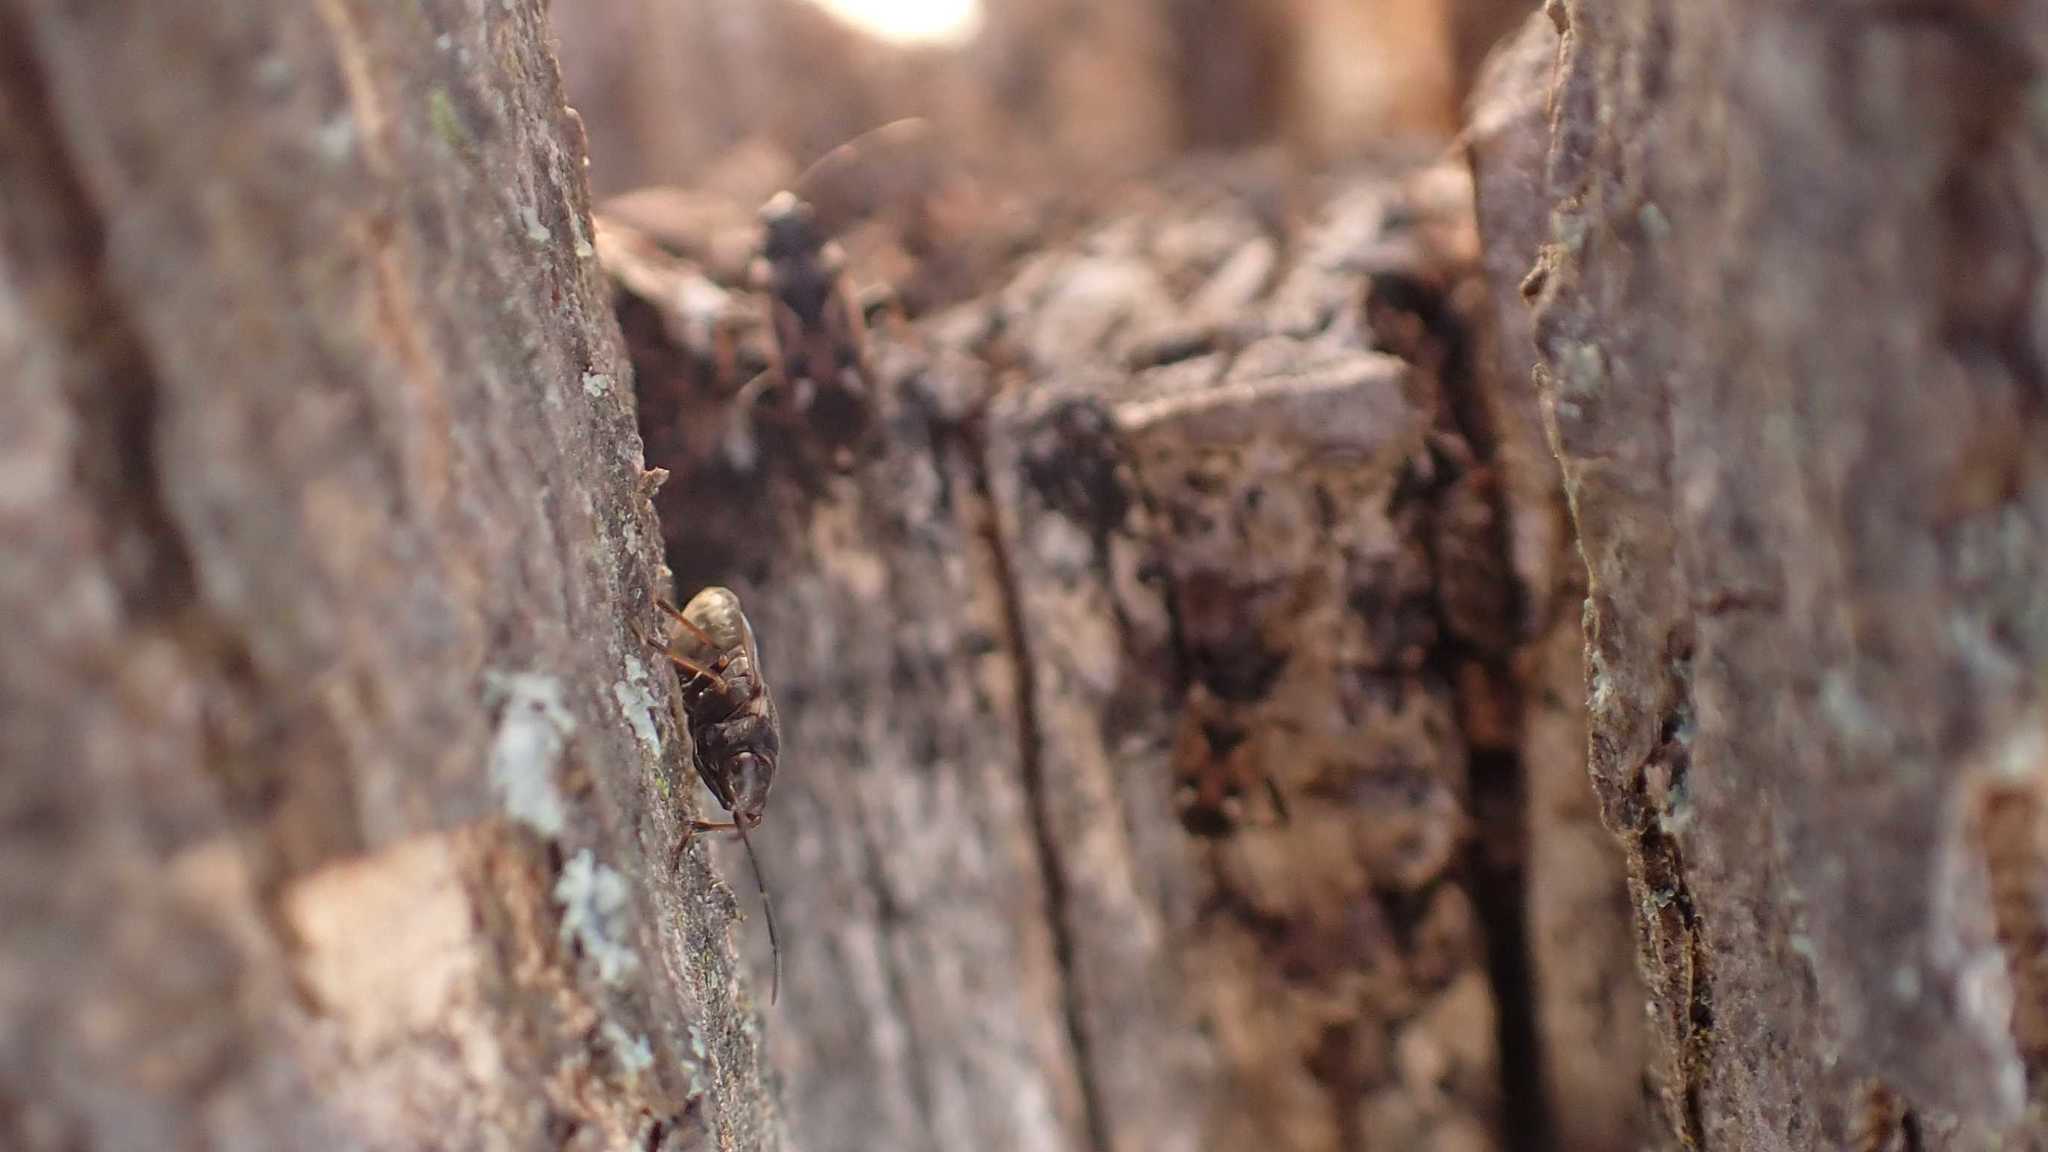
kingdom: Animalia
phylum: Arthropoda
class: Insecta
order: Hemiptera
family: Rhyparochromidae
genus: Rhyparochromus
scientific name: Rhyparochromus vulgaris
